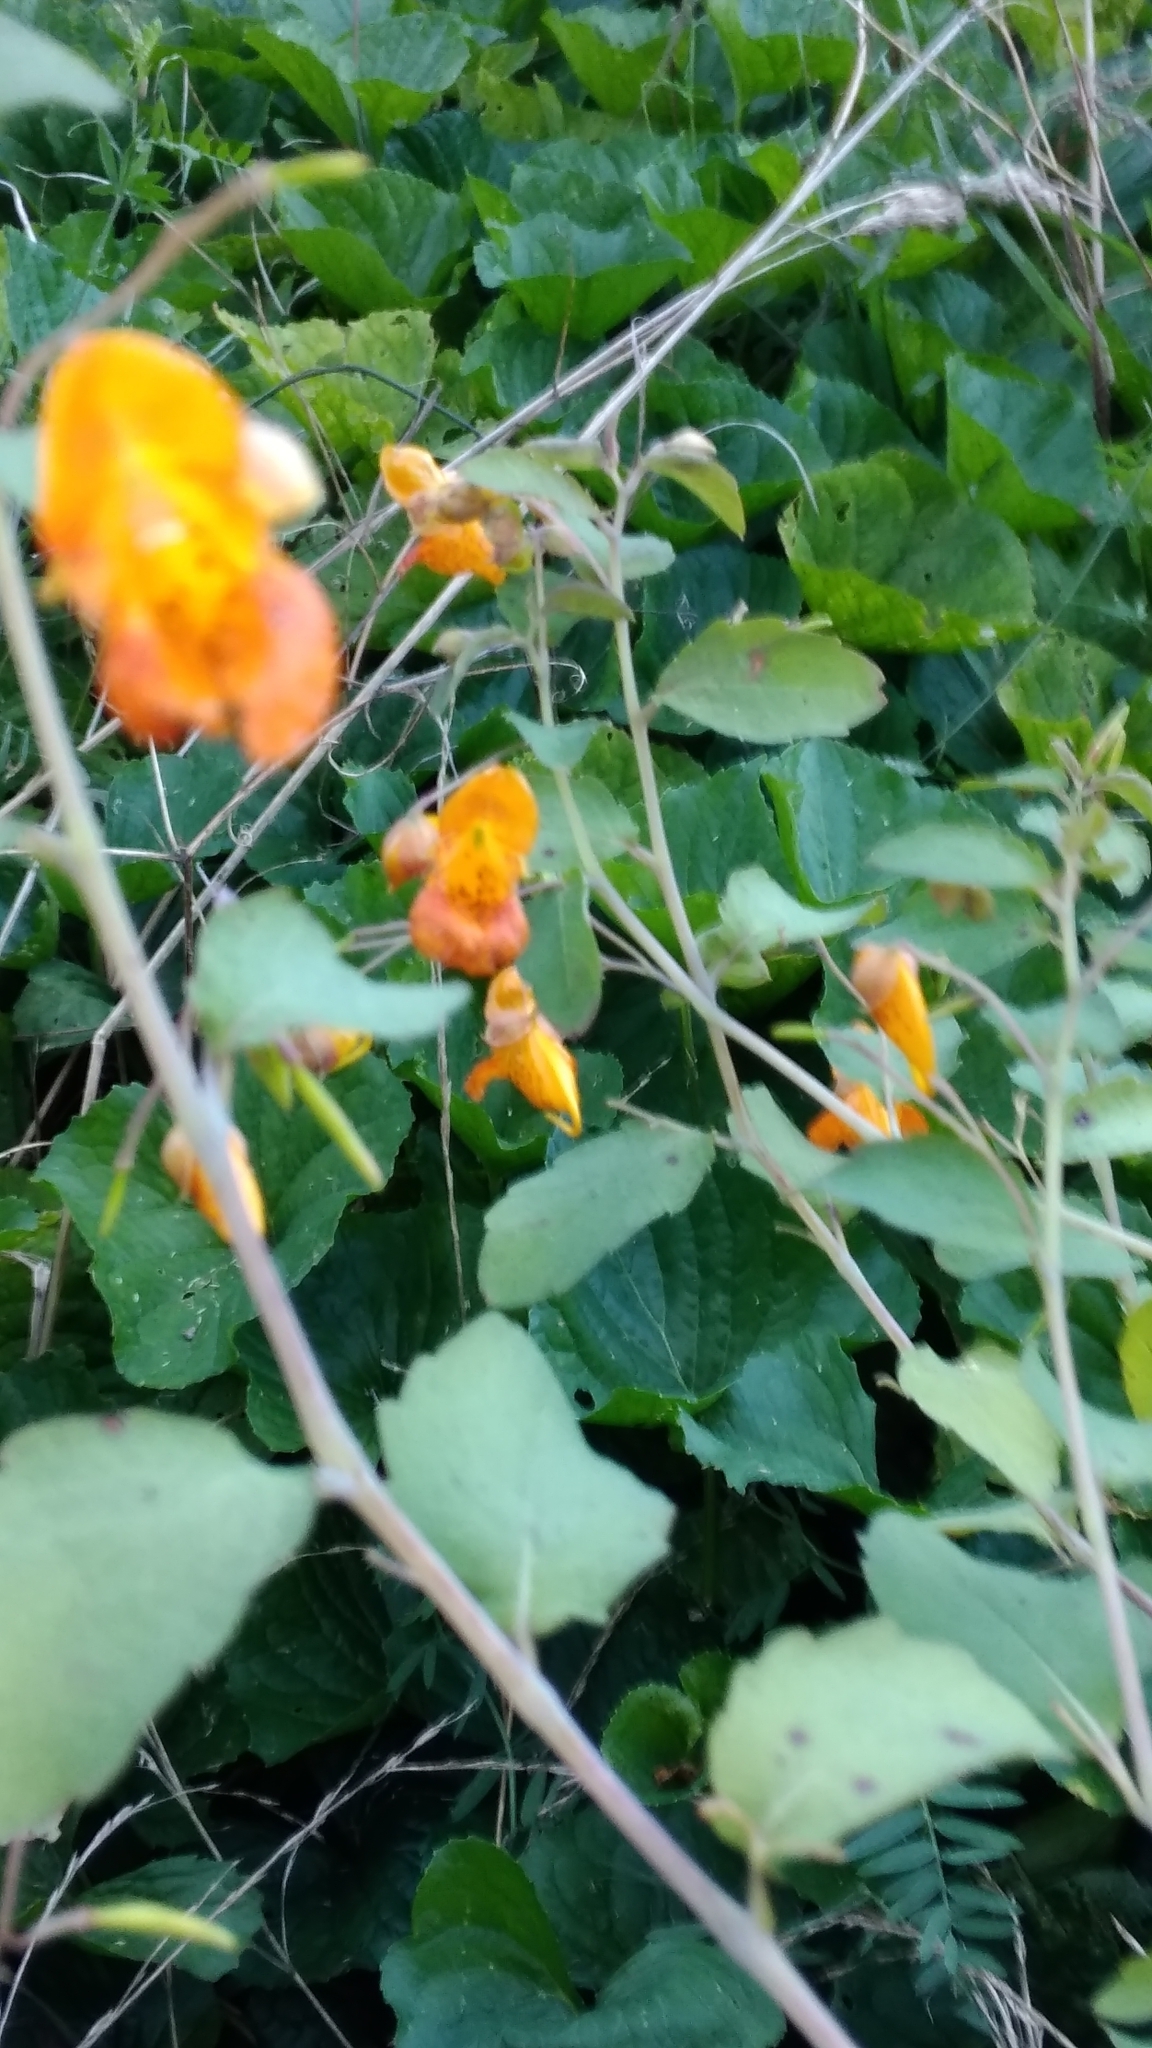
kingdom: Plantae
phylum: Tracheophyta
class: Magnoliopsida
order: Ericales
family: Balsaminaceae
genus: Impatiens
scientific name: Impatiens capensis
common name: Orange balsam
